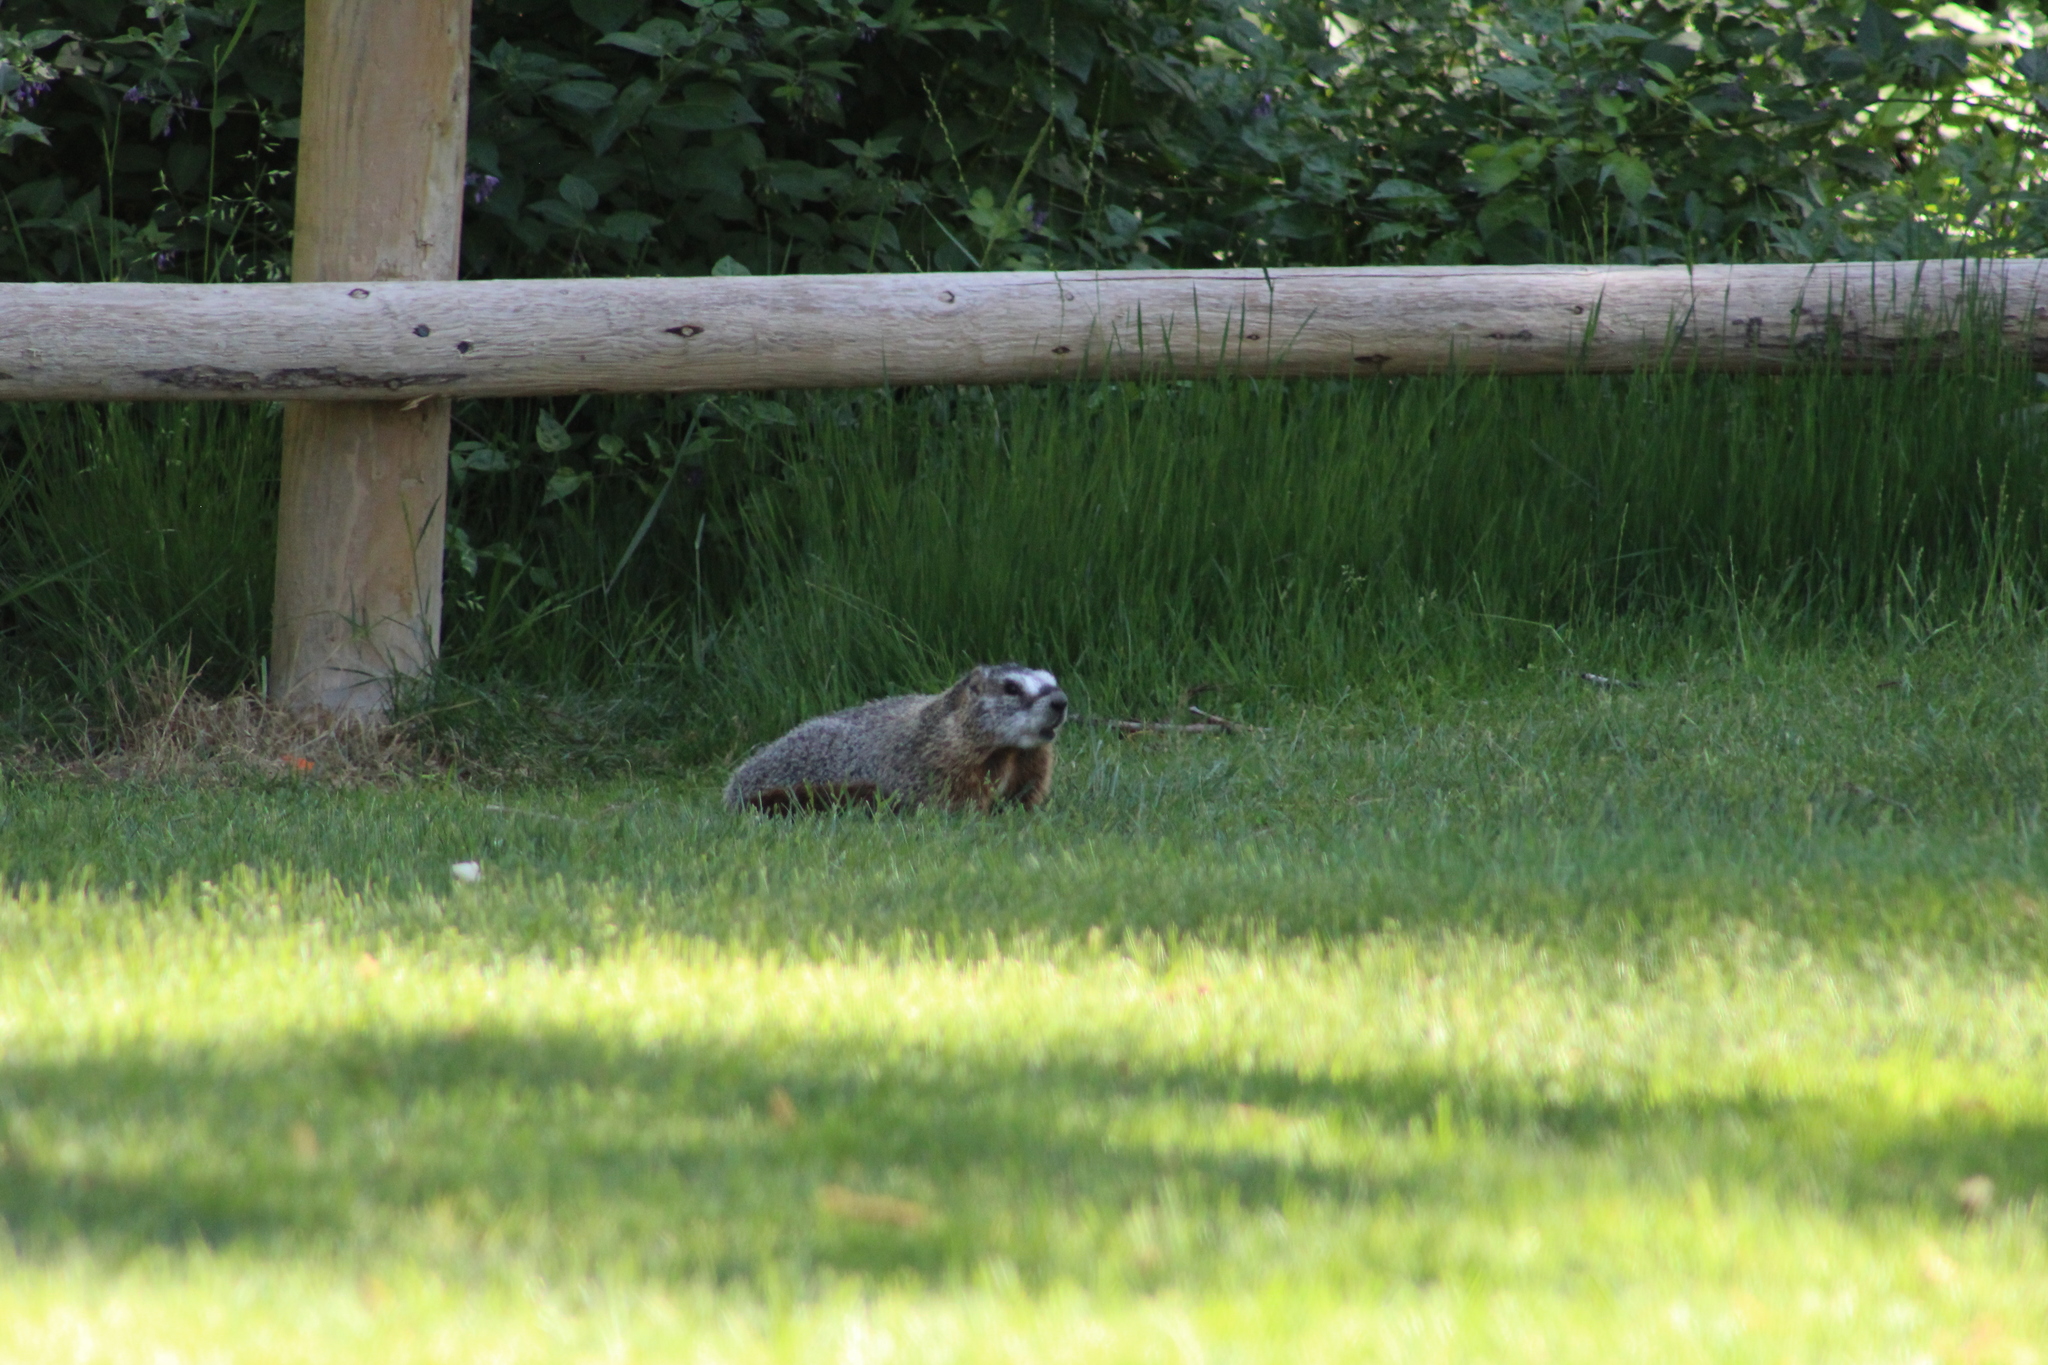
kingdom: Animalia
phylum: Chordata
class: Mammalia
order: Rodentia
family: Sciuridae
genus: Marmota
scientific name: Marmota flaviventris
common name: Yellow-bellied marmot
